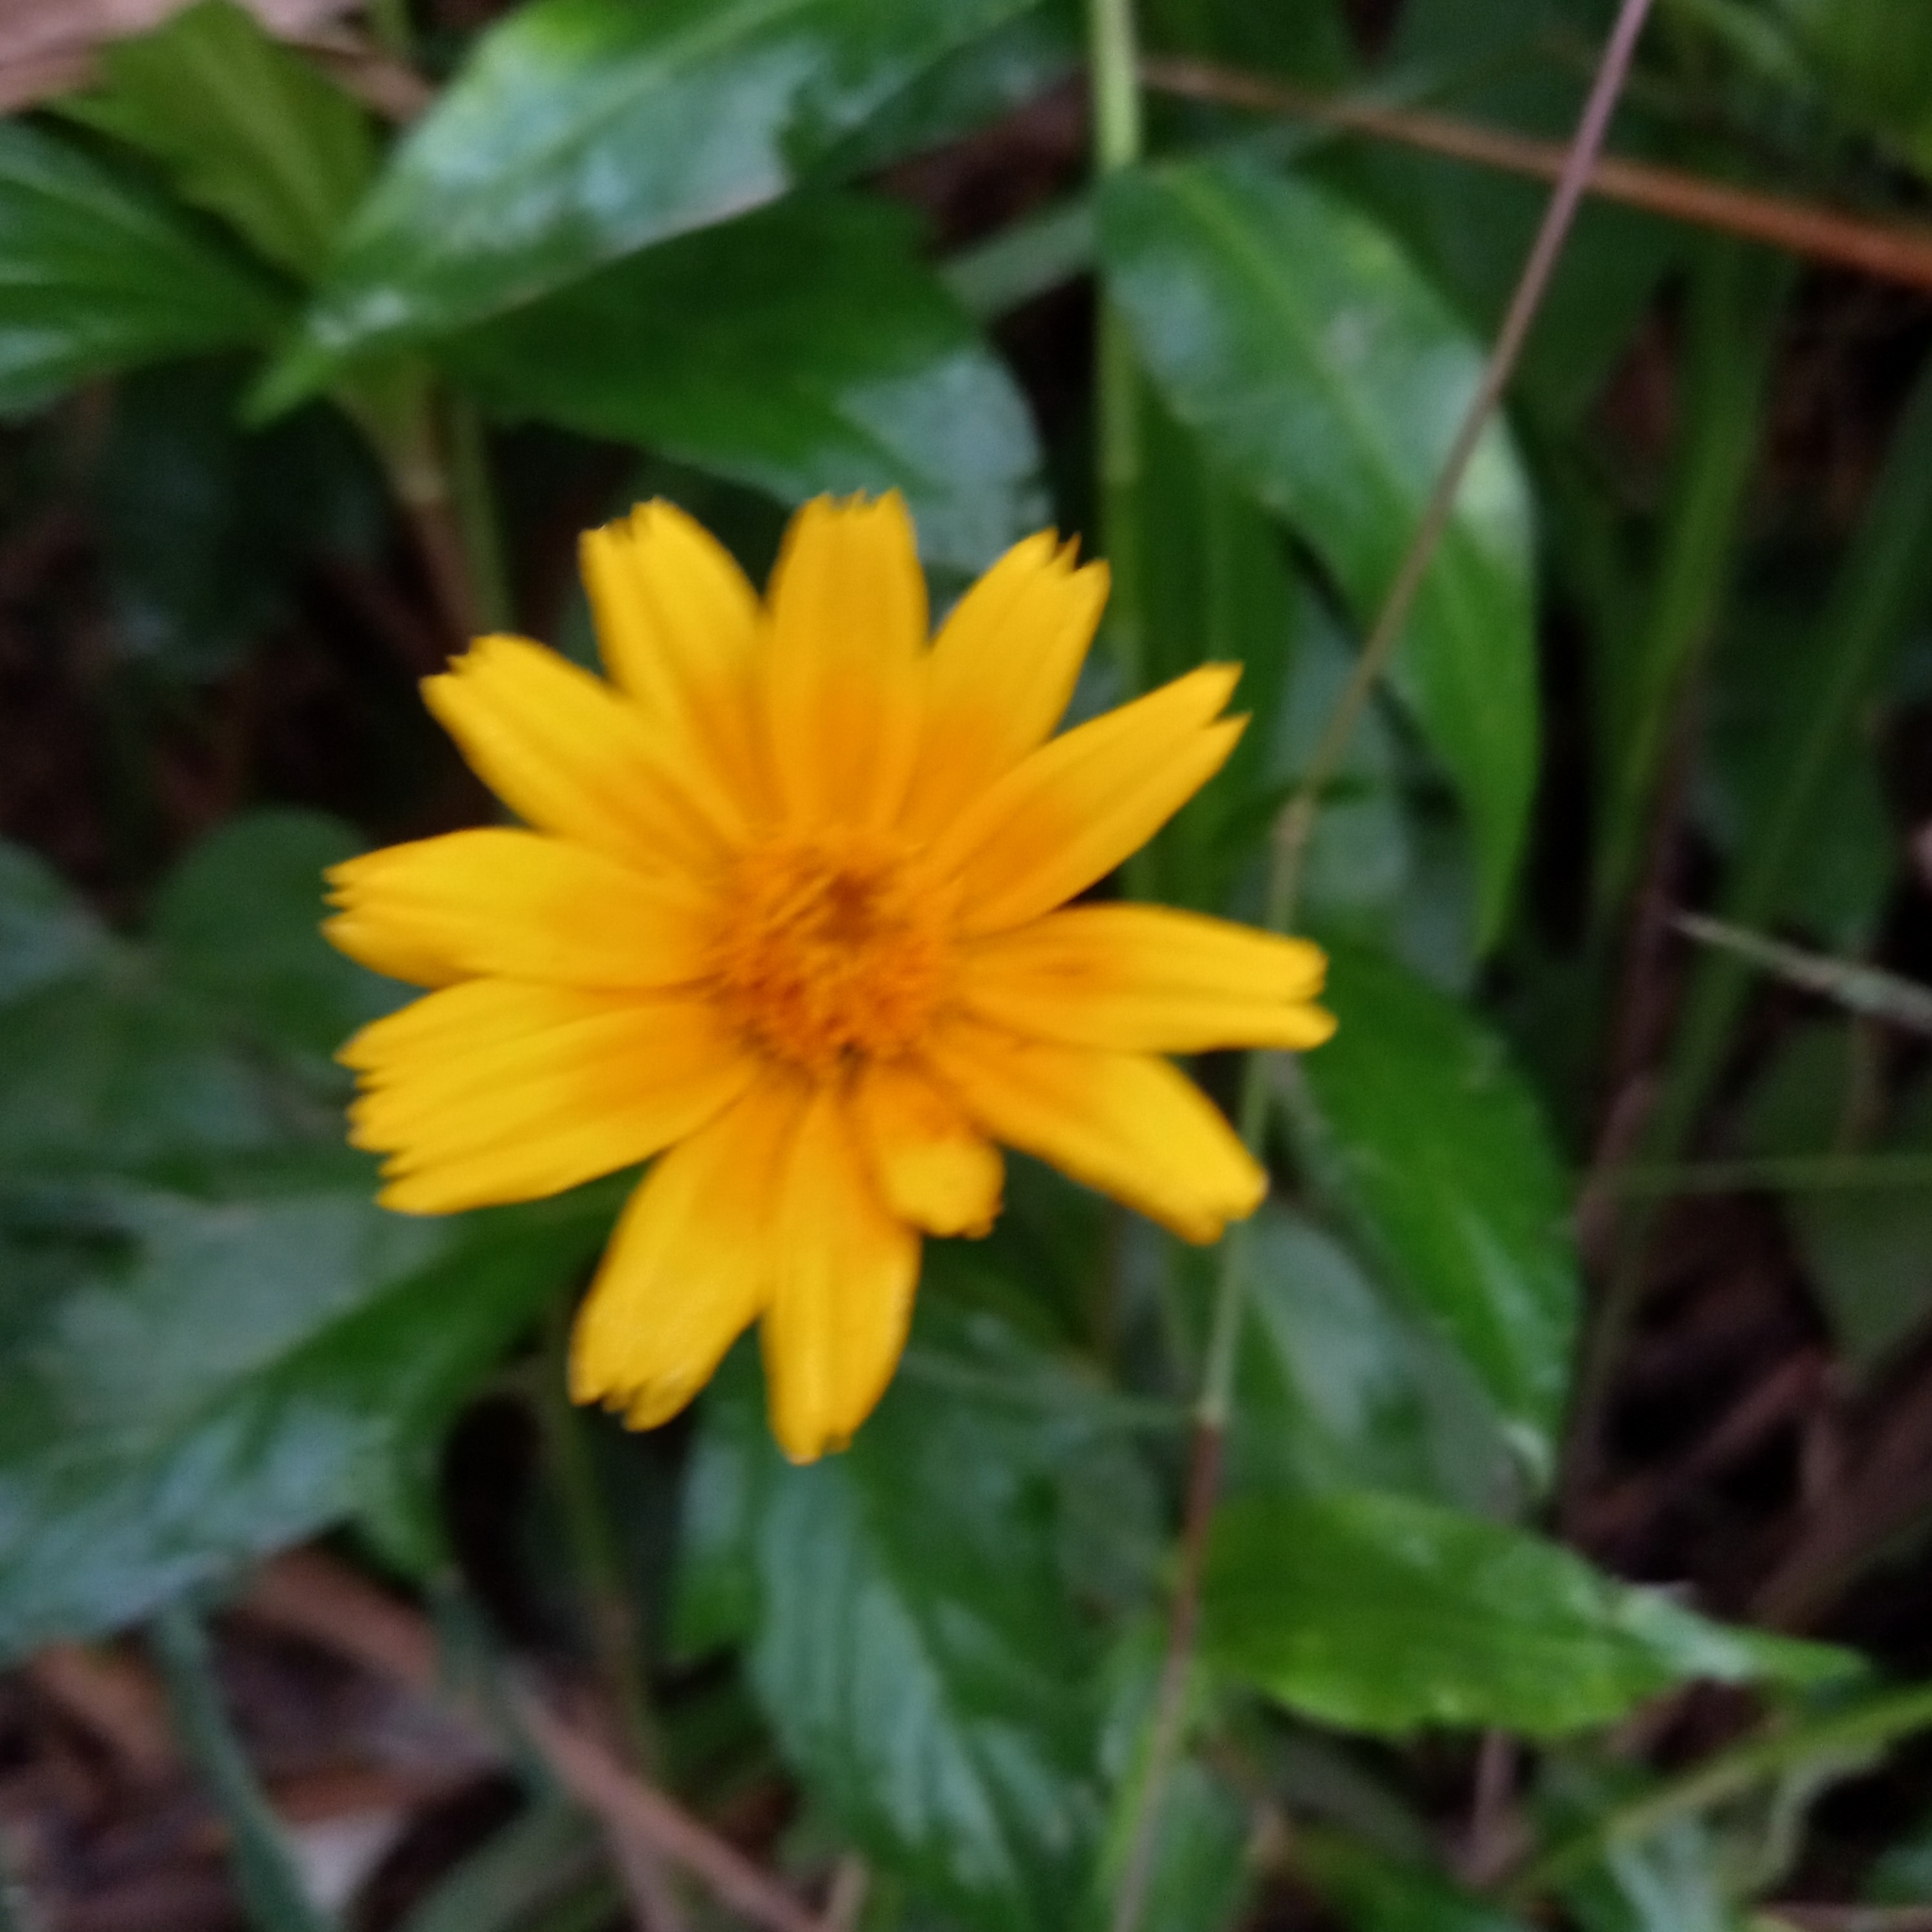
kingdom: Plantae
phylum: Tracheophyta
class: Magnoliopsida
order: Asterales
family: Asteraceae
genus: Sphagneticola
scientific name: Sphagneticola trilobata
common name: Bay biscayne creeping-oxeye
